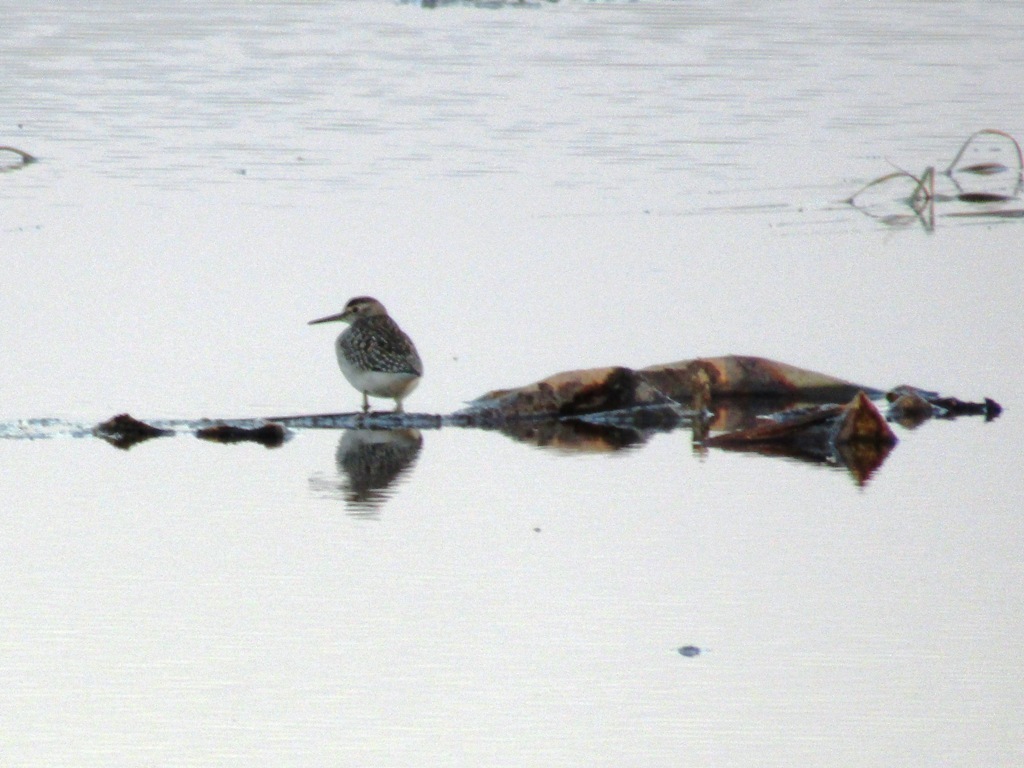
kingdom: Animalia
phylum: Chordata
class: Aves
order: Charadriiformes
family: Scolopacidae
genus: Tringa
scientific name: Tringa glareola
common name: Wood sandpiper
